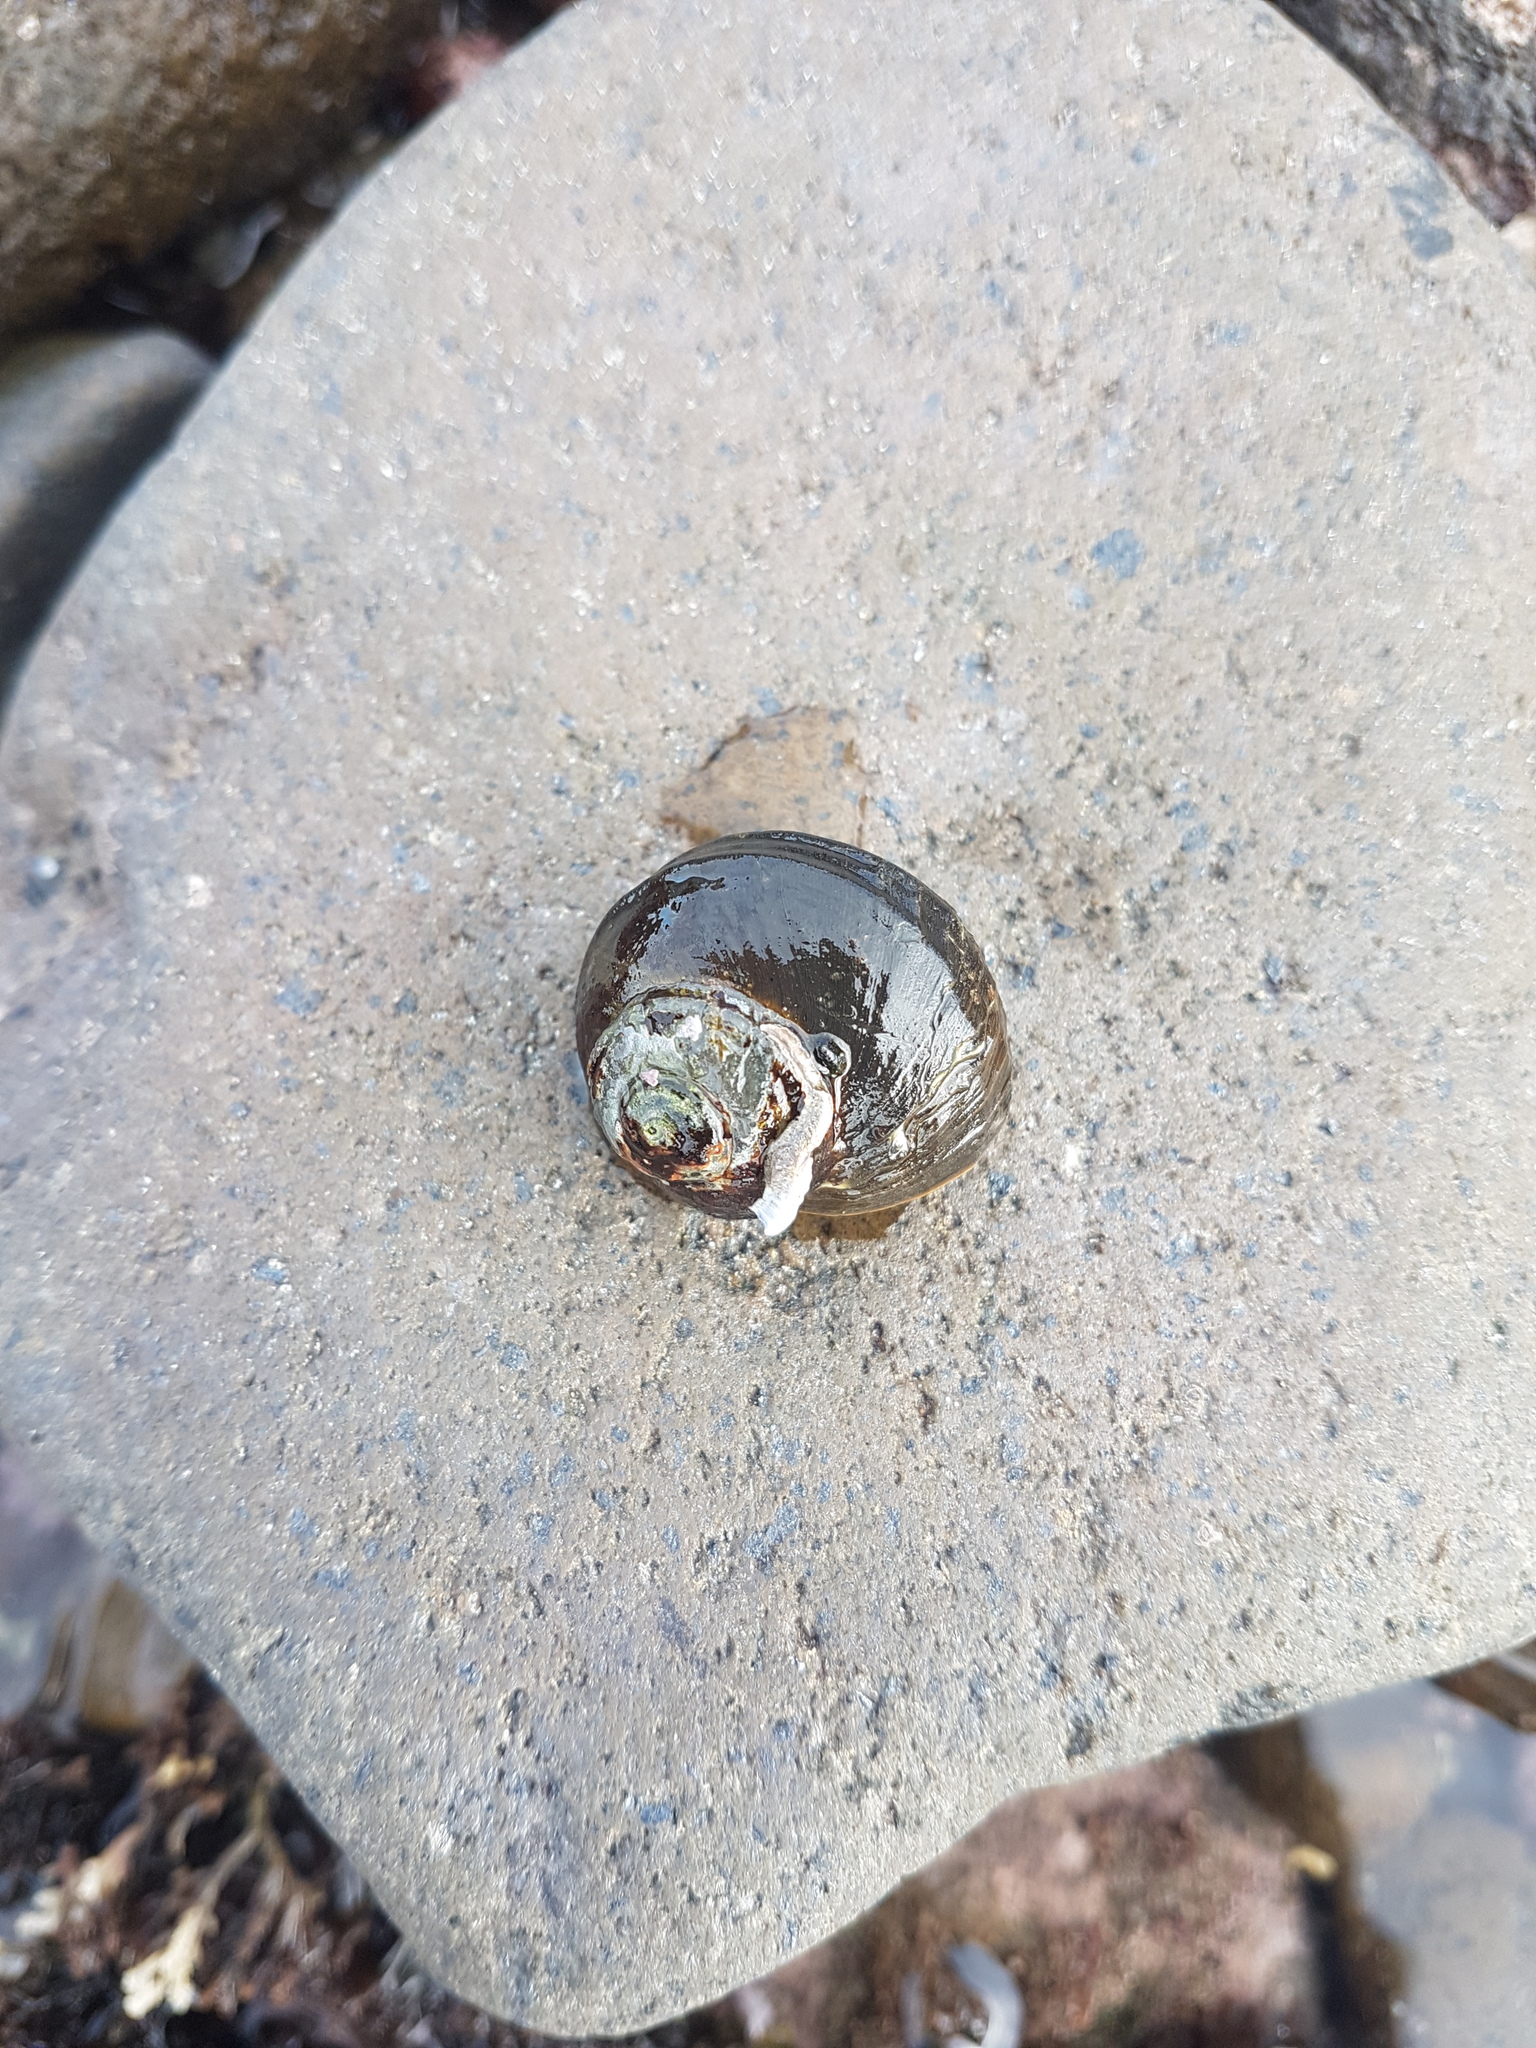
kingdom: Animalia
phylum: Mollusca
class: Gastropoda
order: Trochida
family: Turbinidae
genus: Lunella
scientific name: Lunella smaragda
